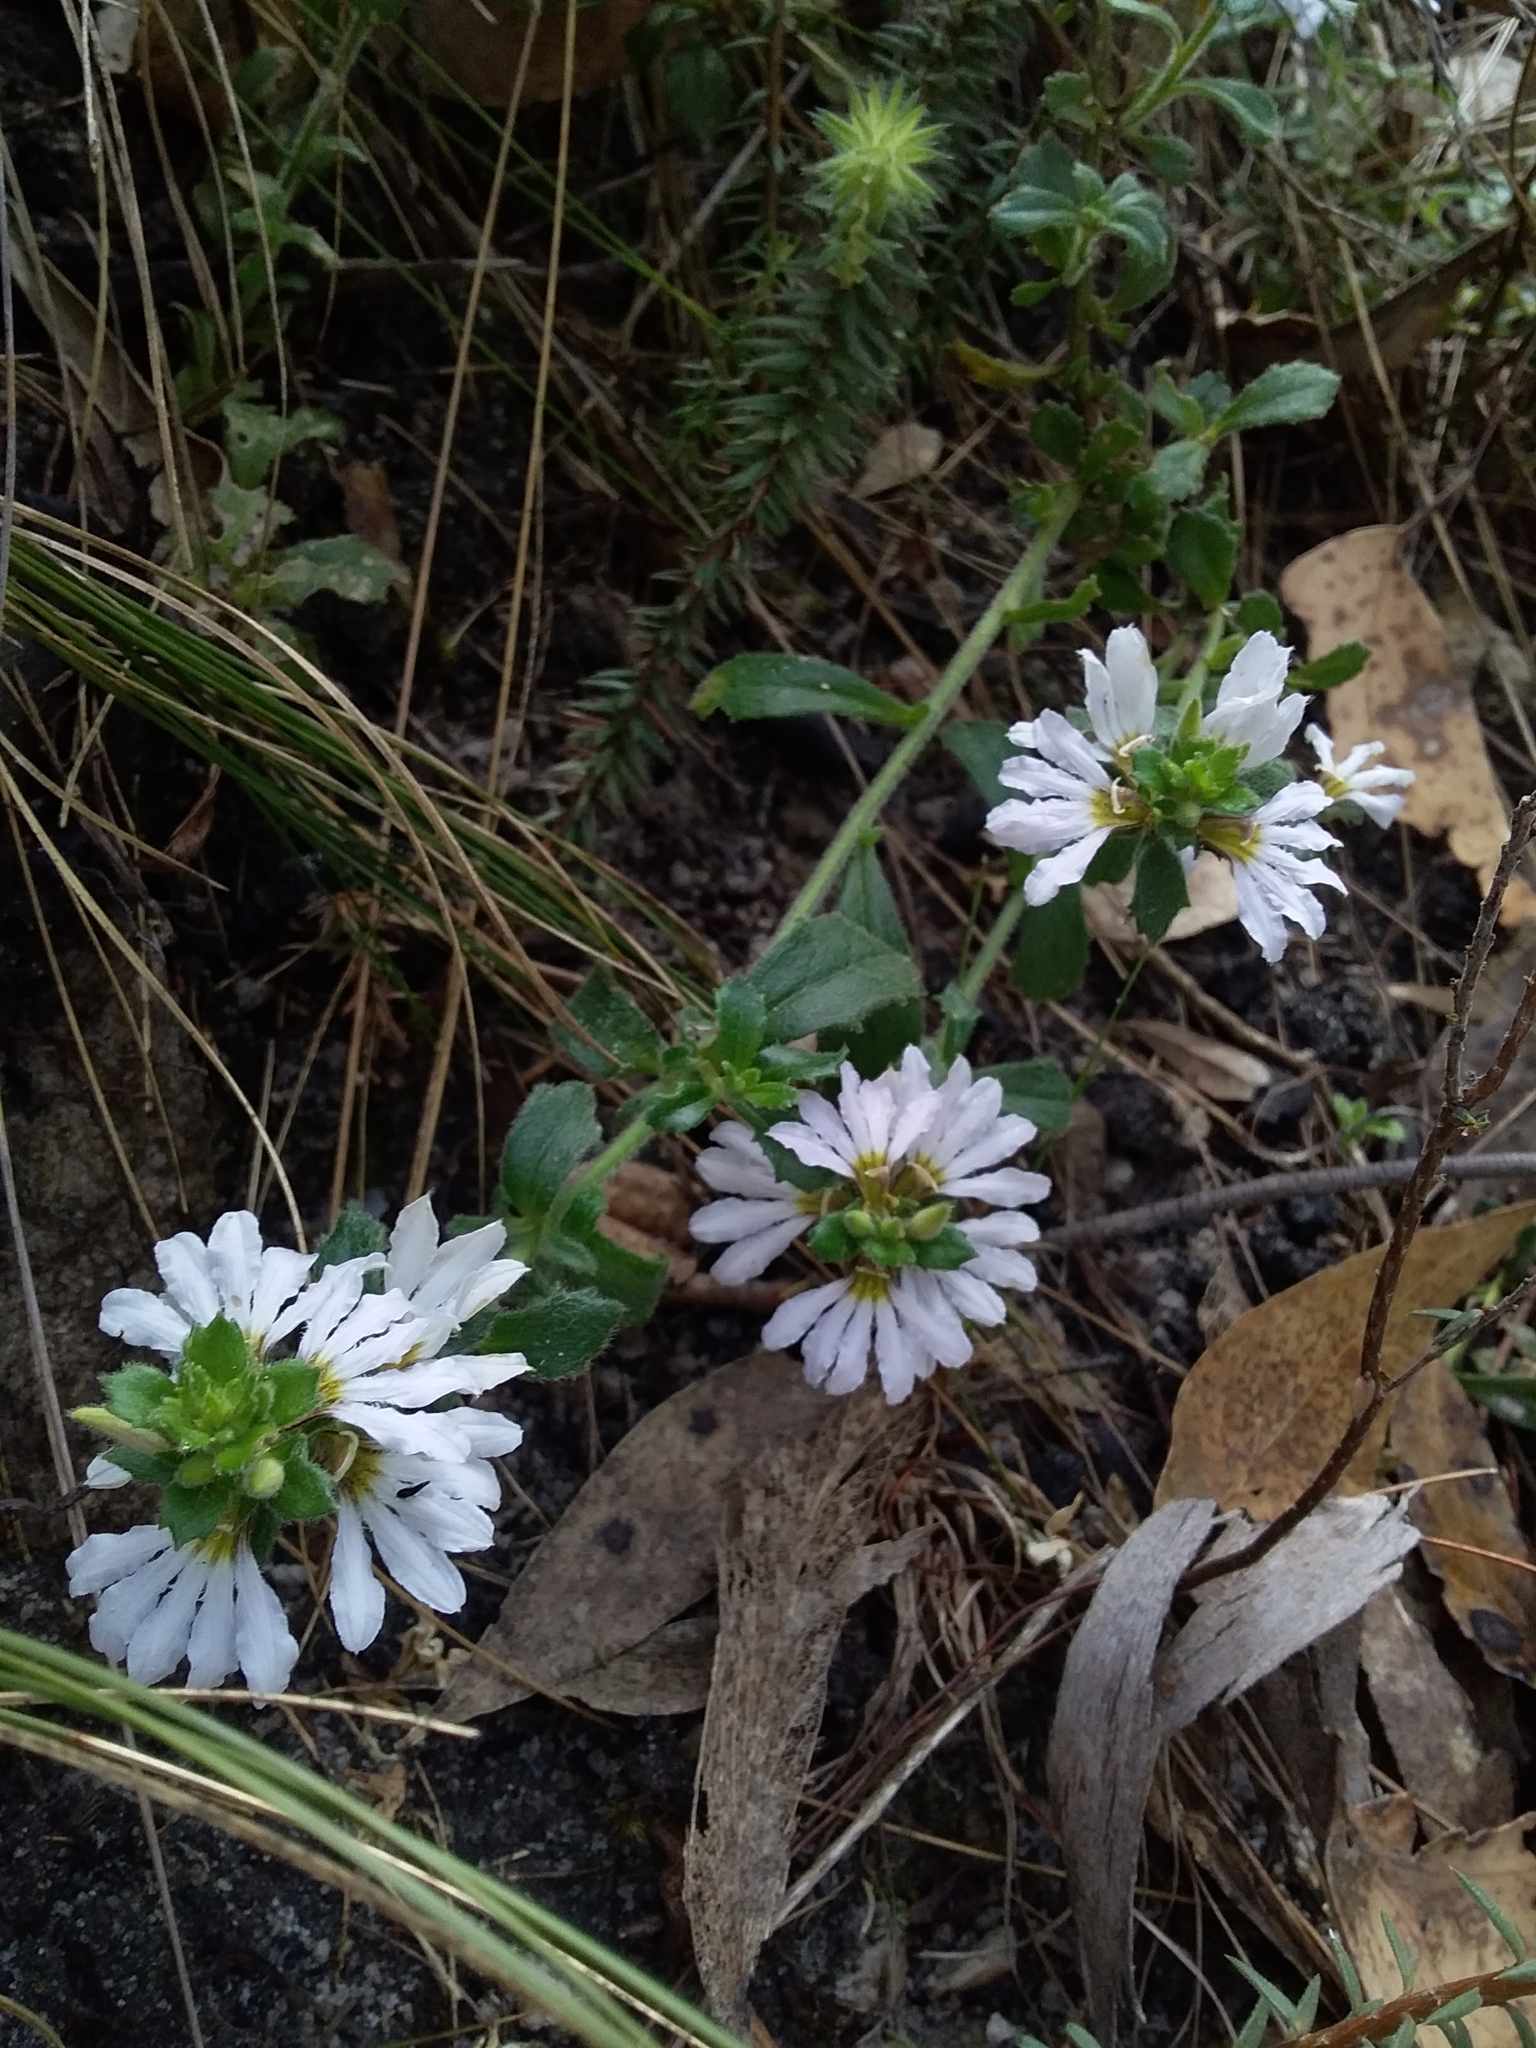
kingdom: Plantae
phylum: Tracheophyta
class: Magnoliopsida
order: Asterales
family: Goodeniaceae
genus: Scaevola
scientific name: Scaevola albida
